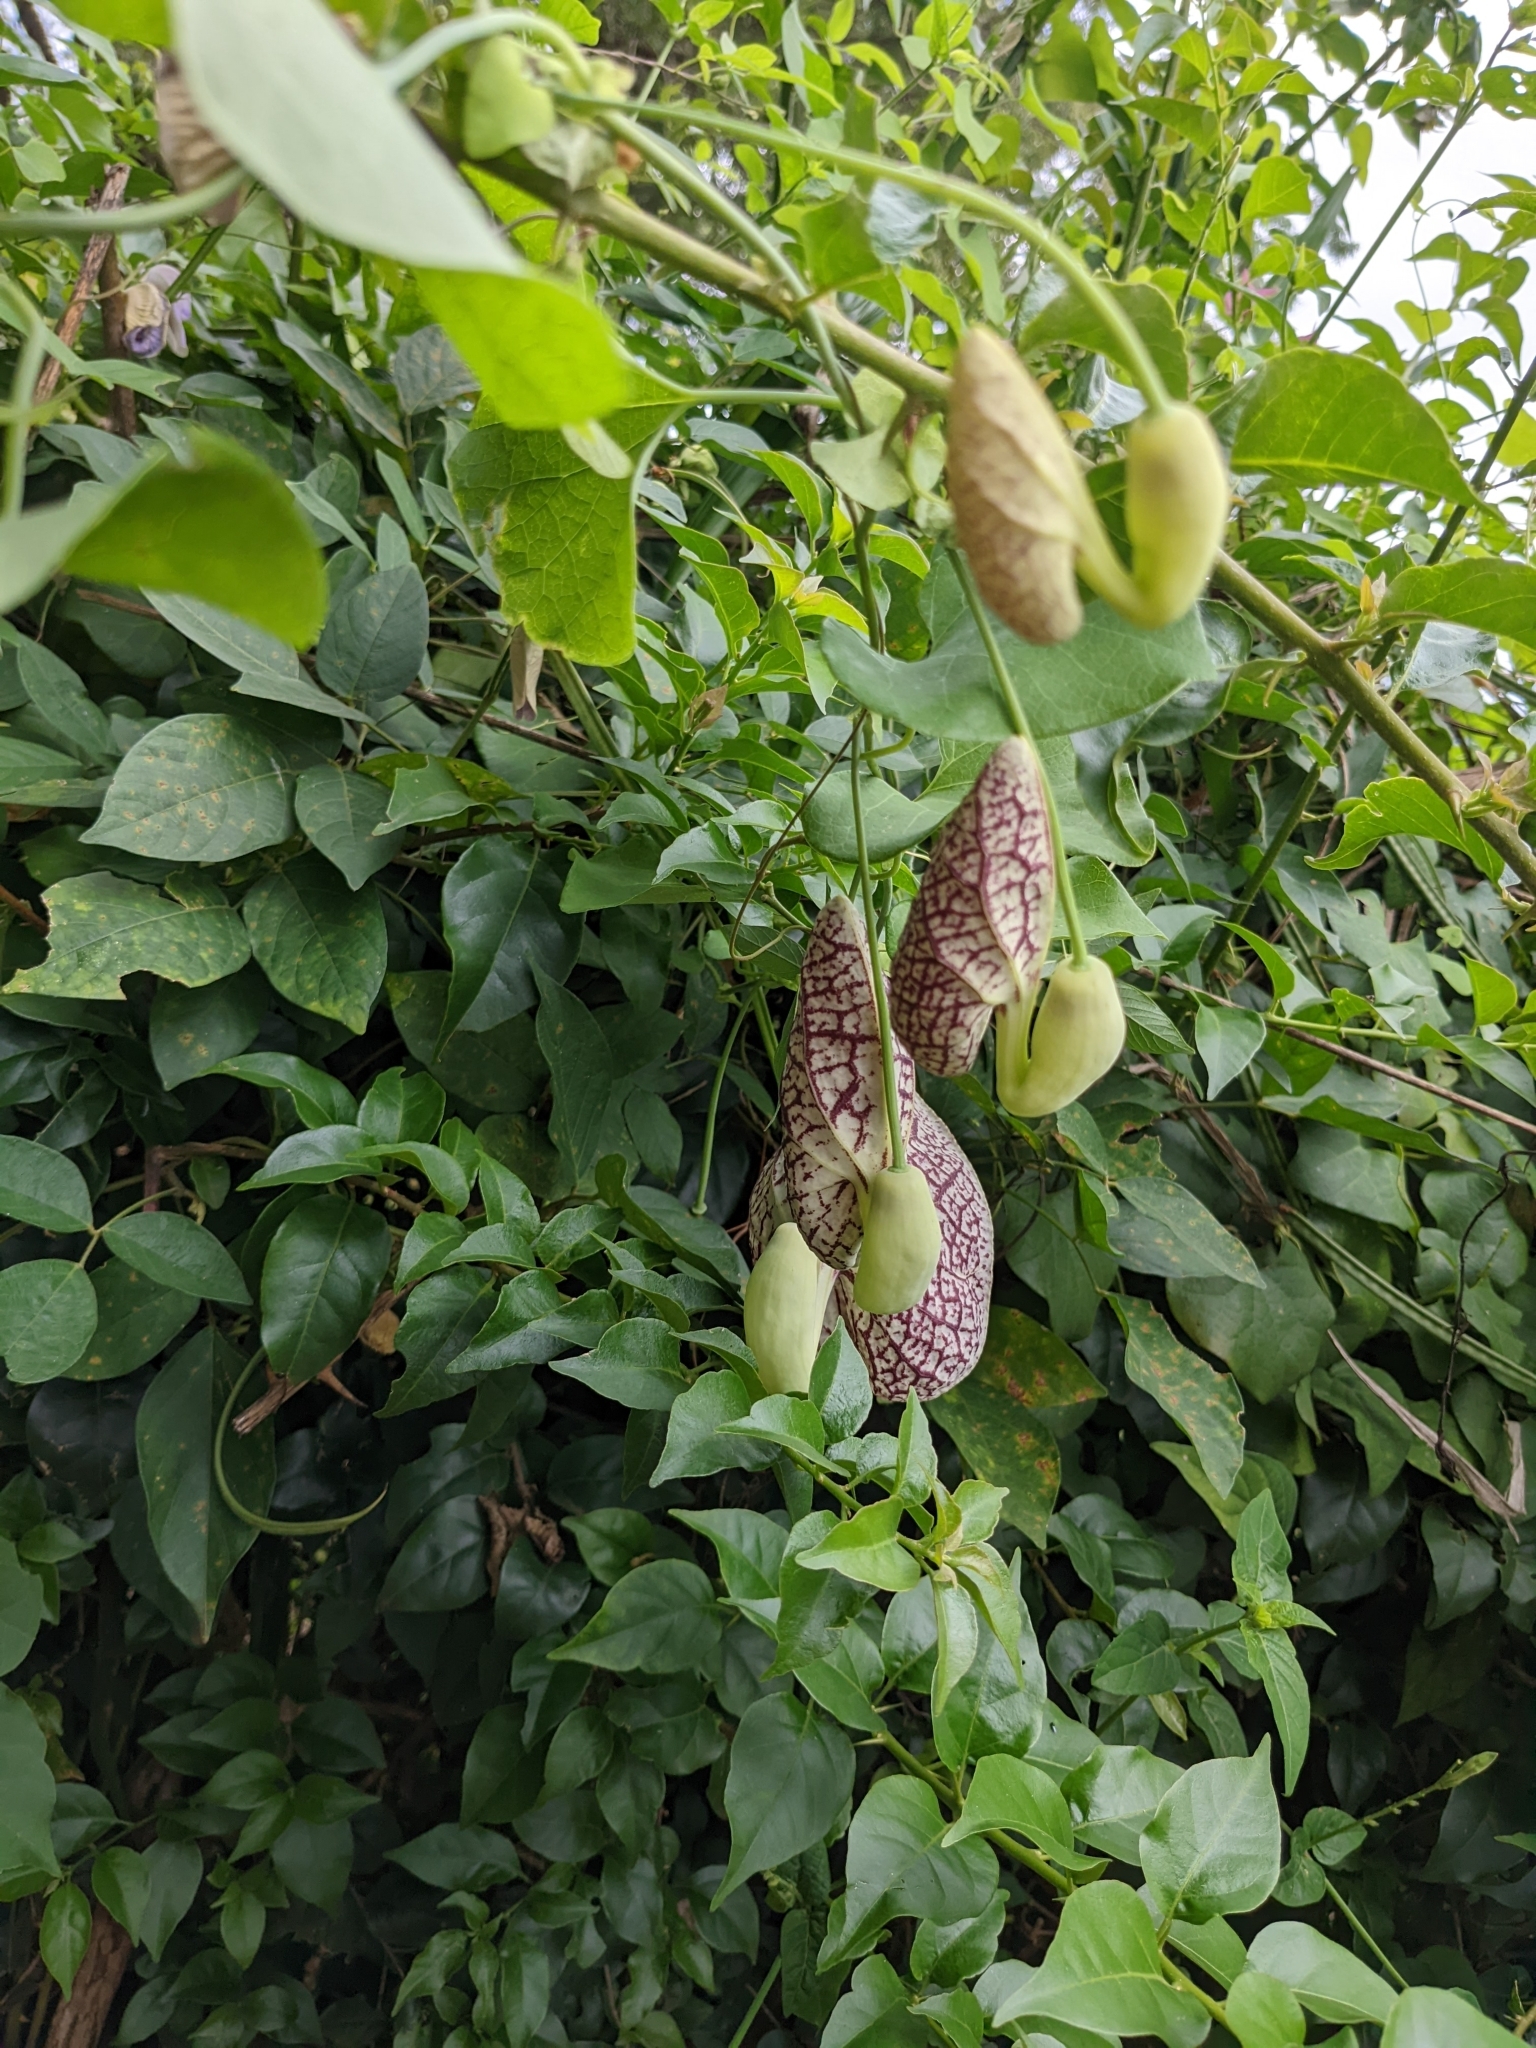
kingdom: Plantae
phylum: Tracheophyta
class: Magnoliopsida
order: Piperales
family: Aristolochiaceae
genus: Aristolochia
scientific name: Aristolochia littoralis
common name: Duck
